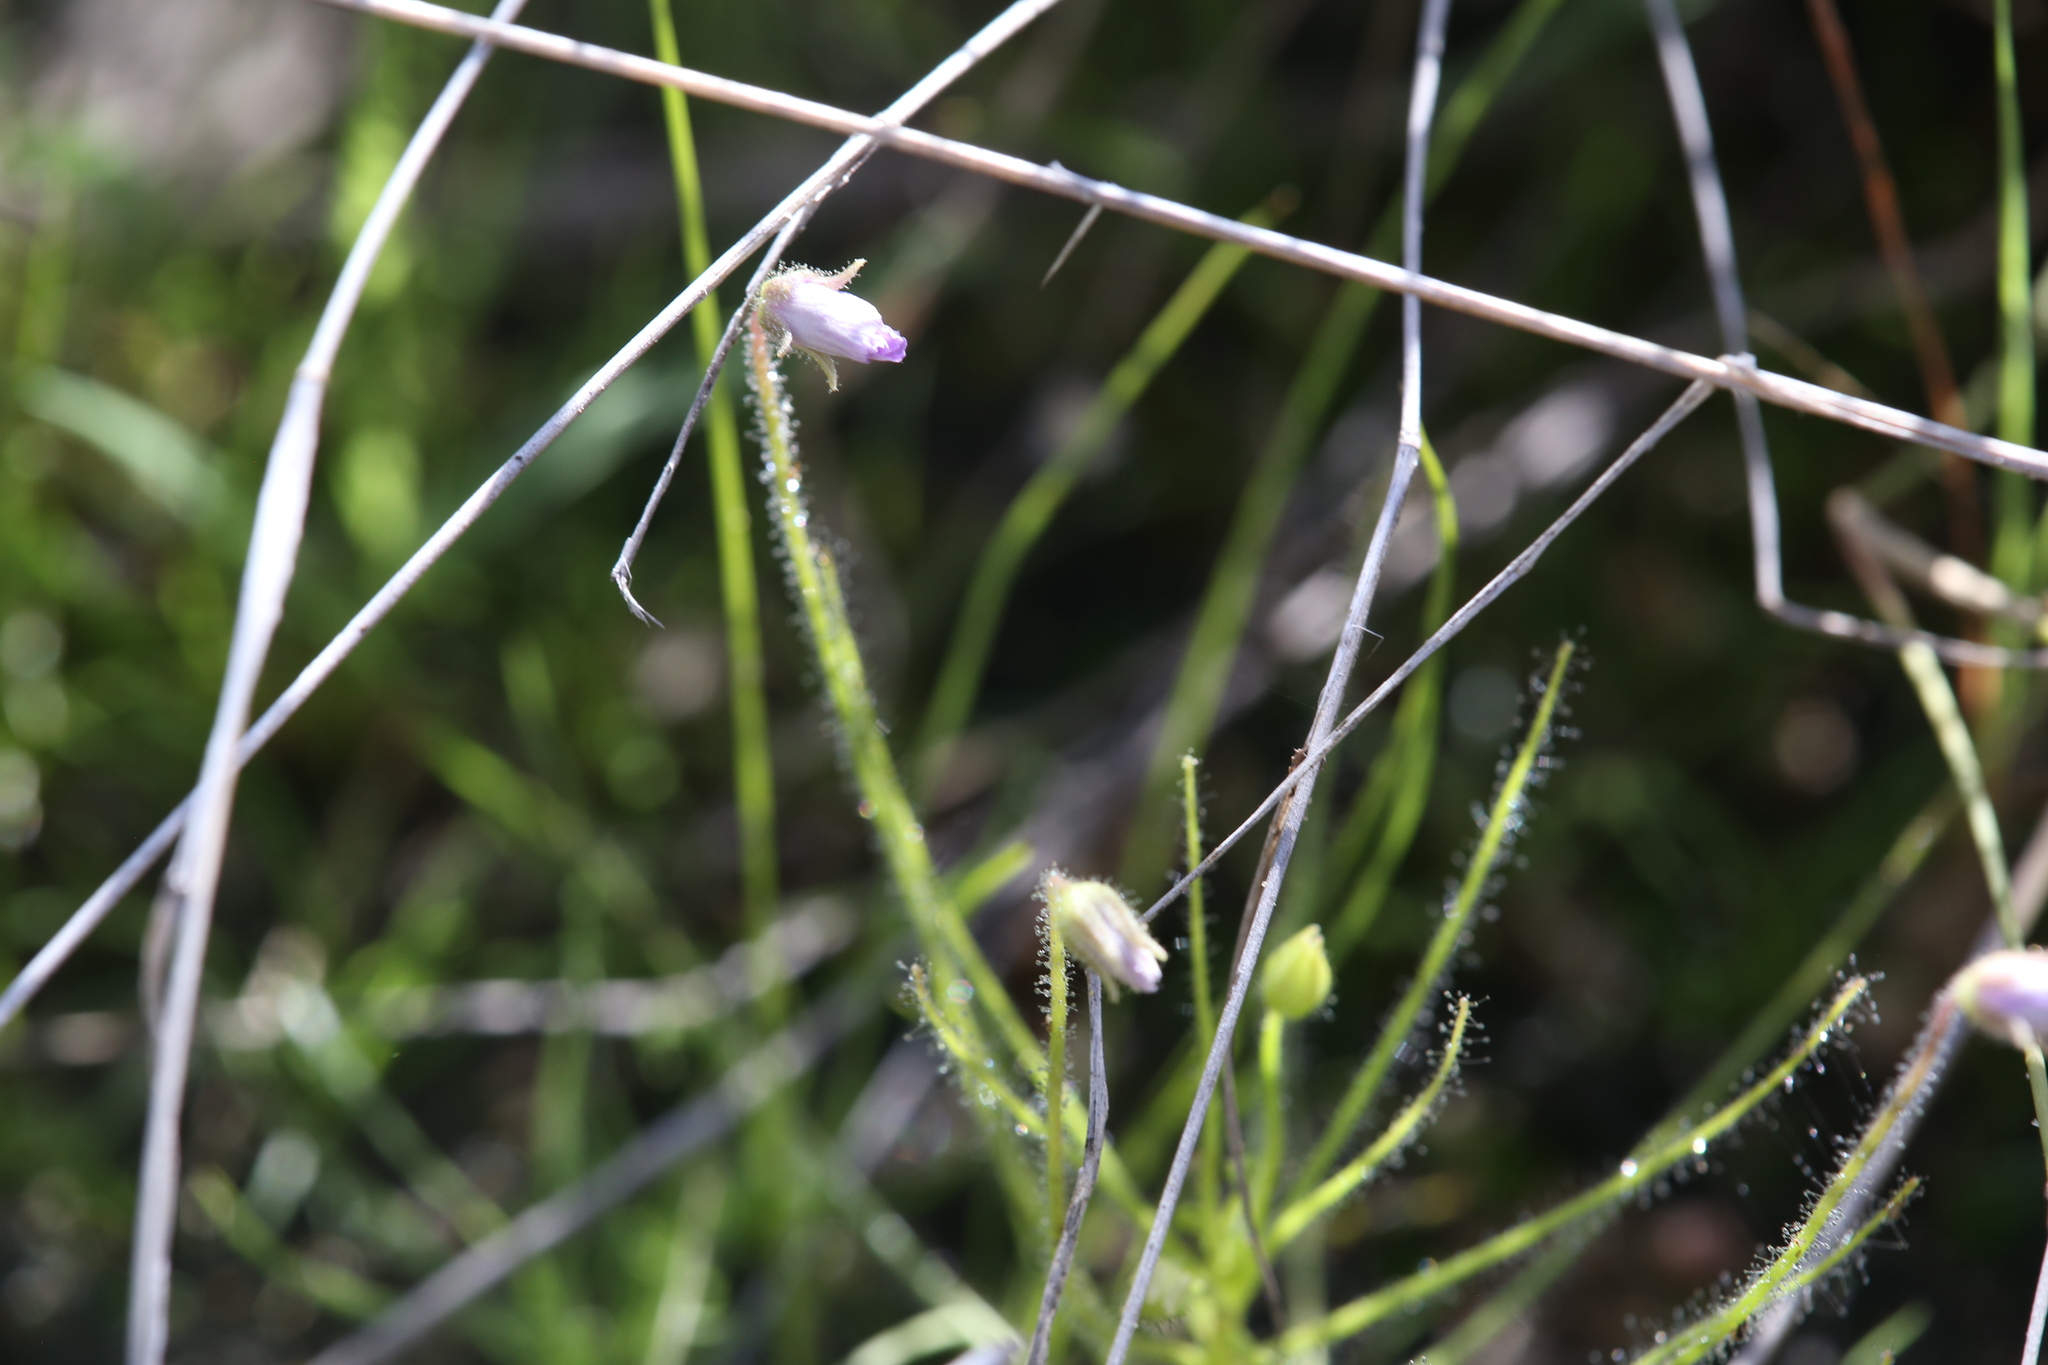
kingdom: Plantae
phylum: Tracheophyta
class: Magnoliopsida
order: Lamiales
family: Byblidaceae
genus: Byblis
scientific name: Byblis filifolia
